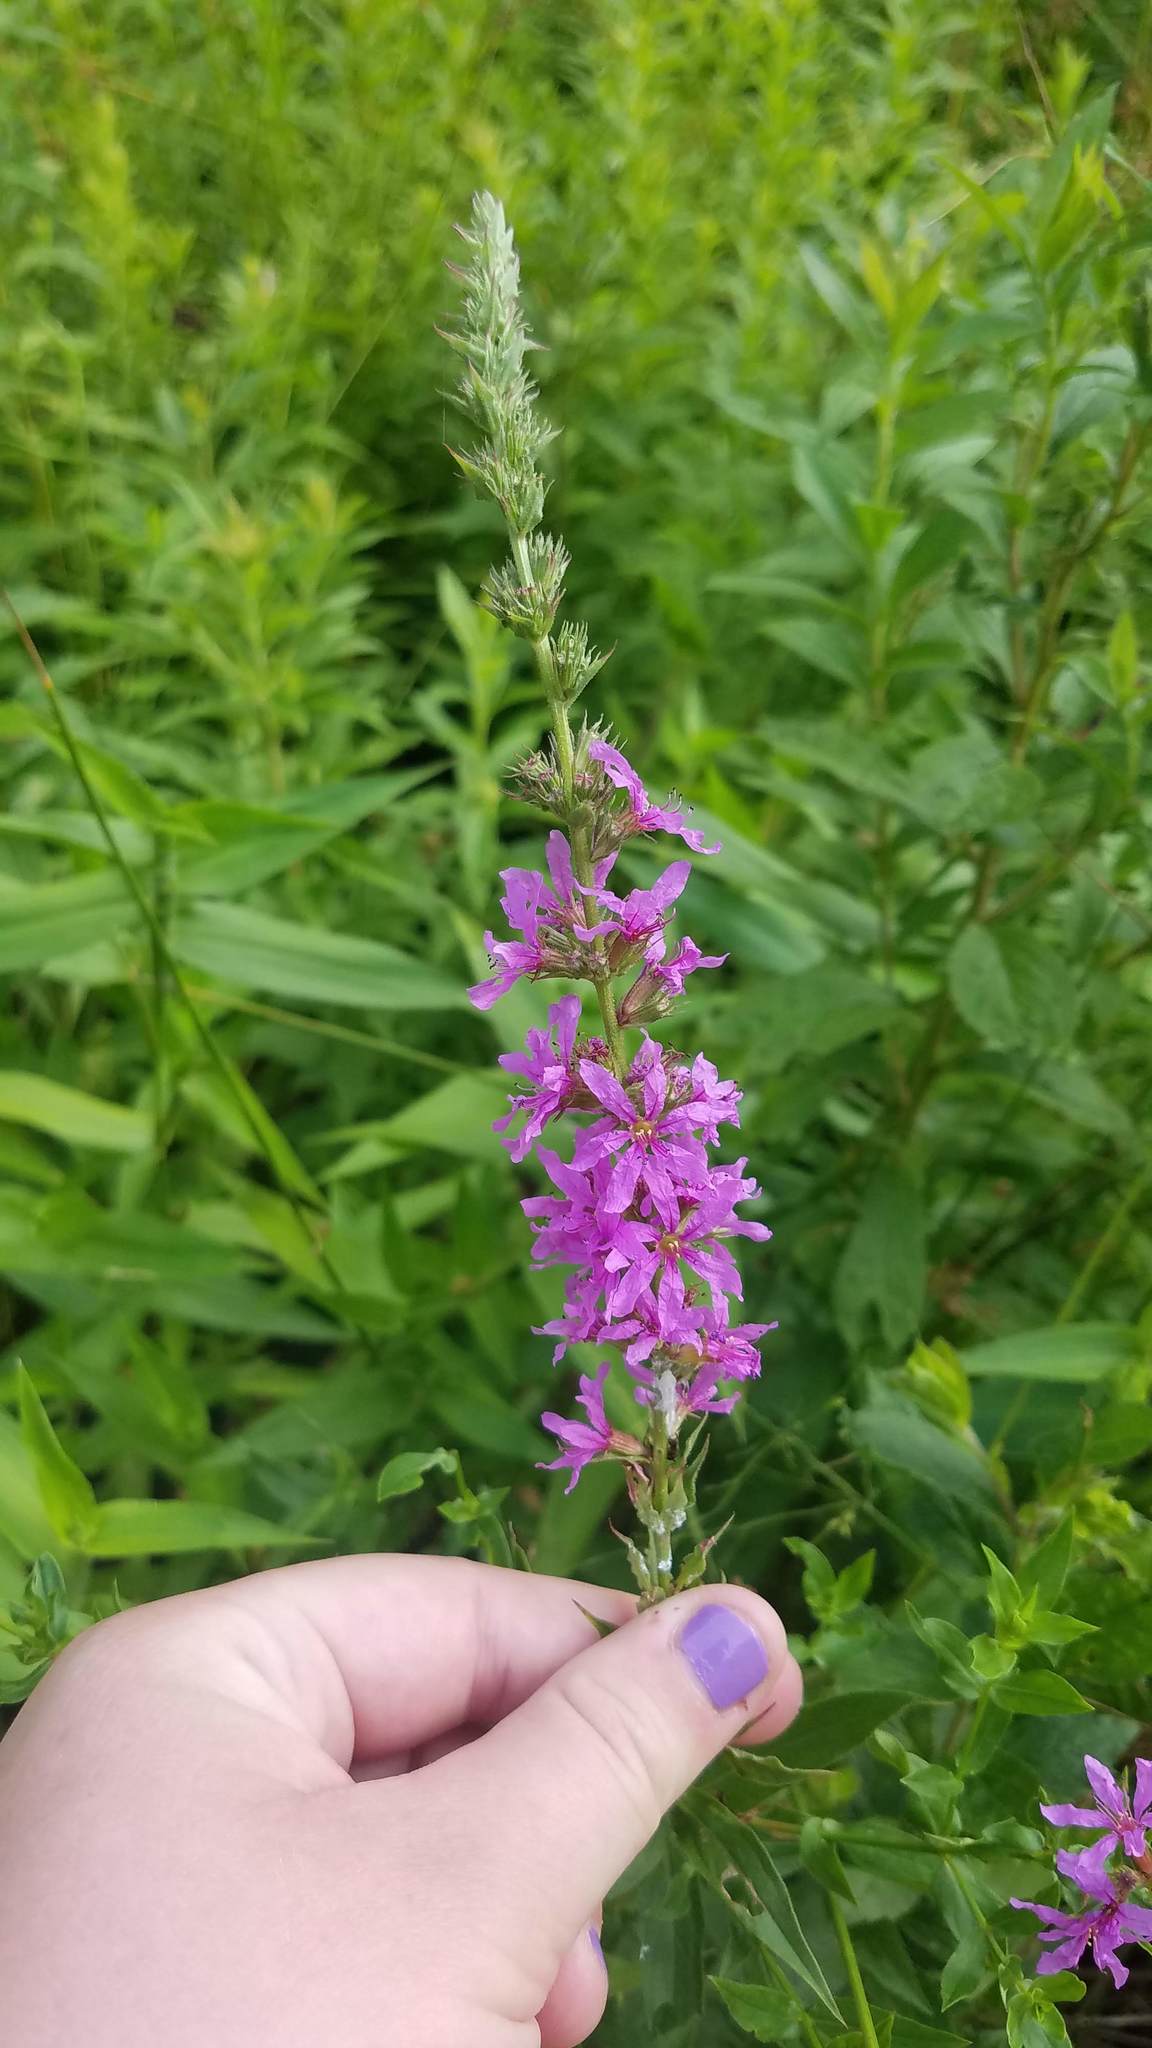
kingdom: Plantae
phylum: Tracheophyta
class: Magnoliopsida
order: Myrtales
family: Lythraceae
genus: Lythrum
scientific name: Lythrum salicaria
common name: Purple loosestrife
